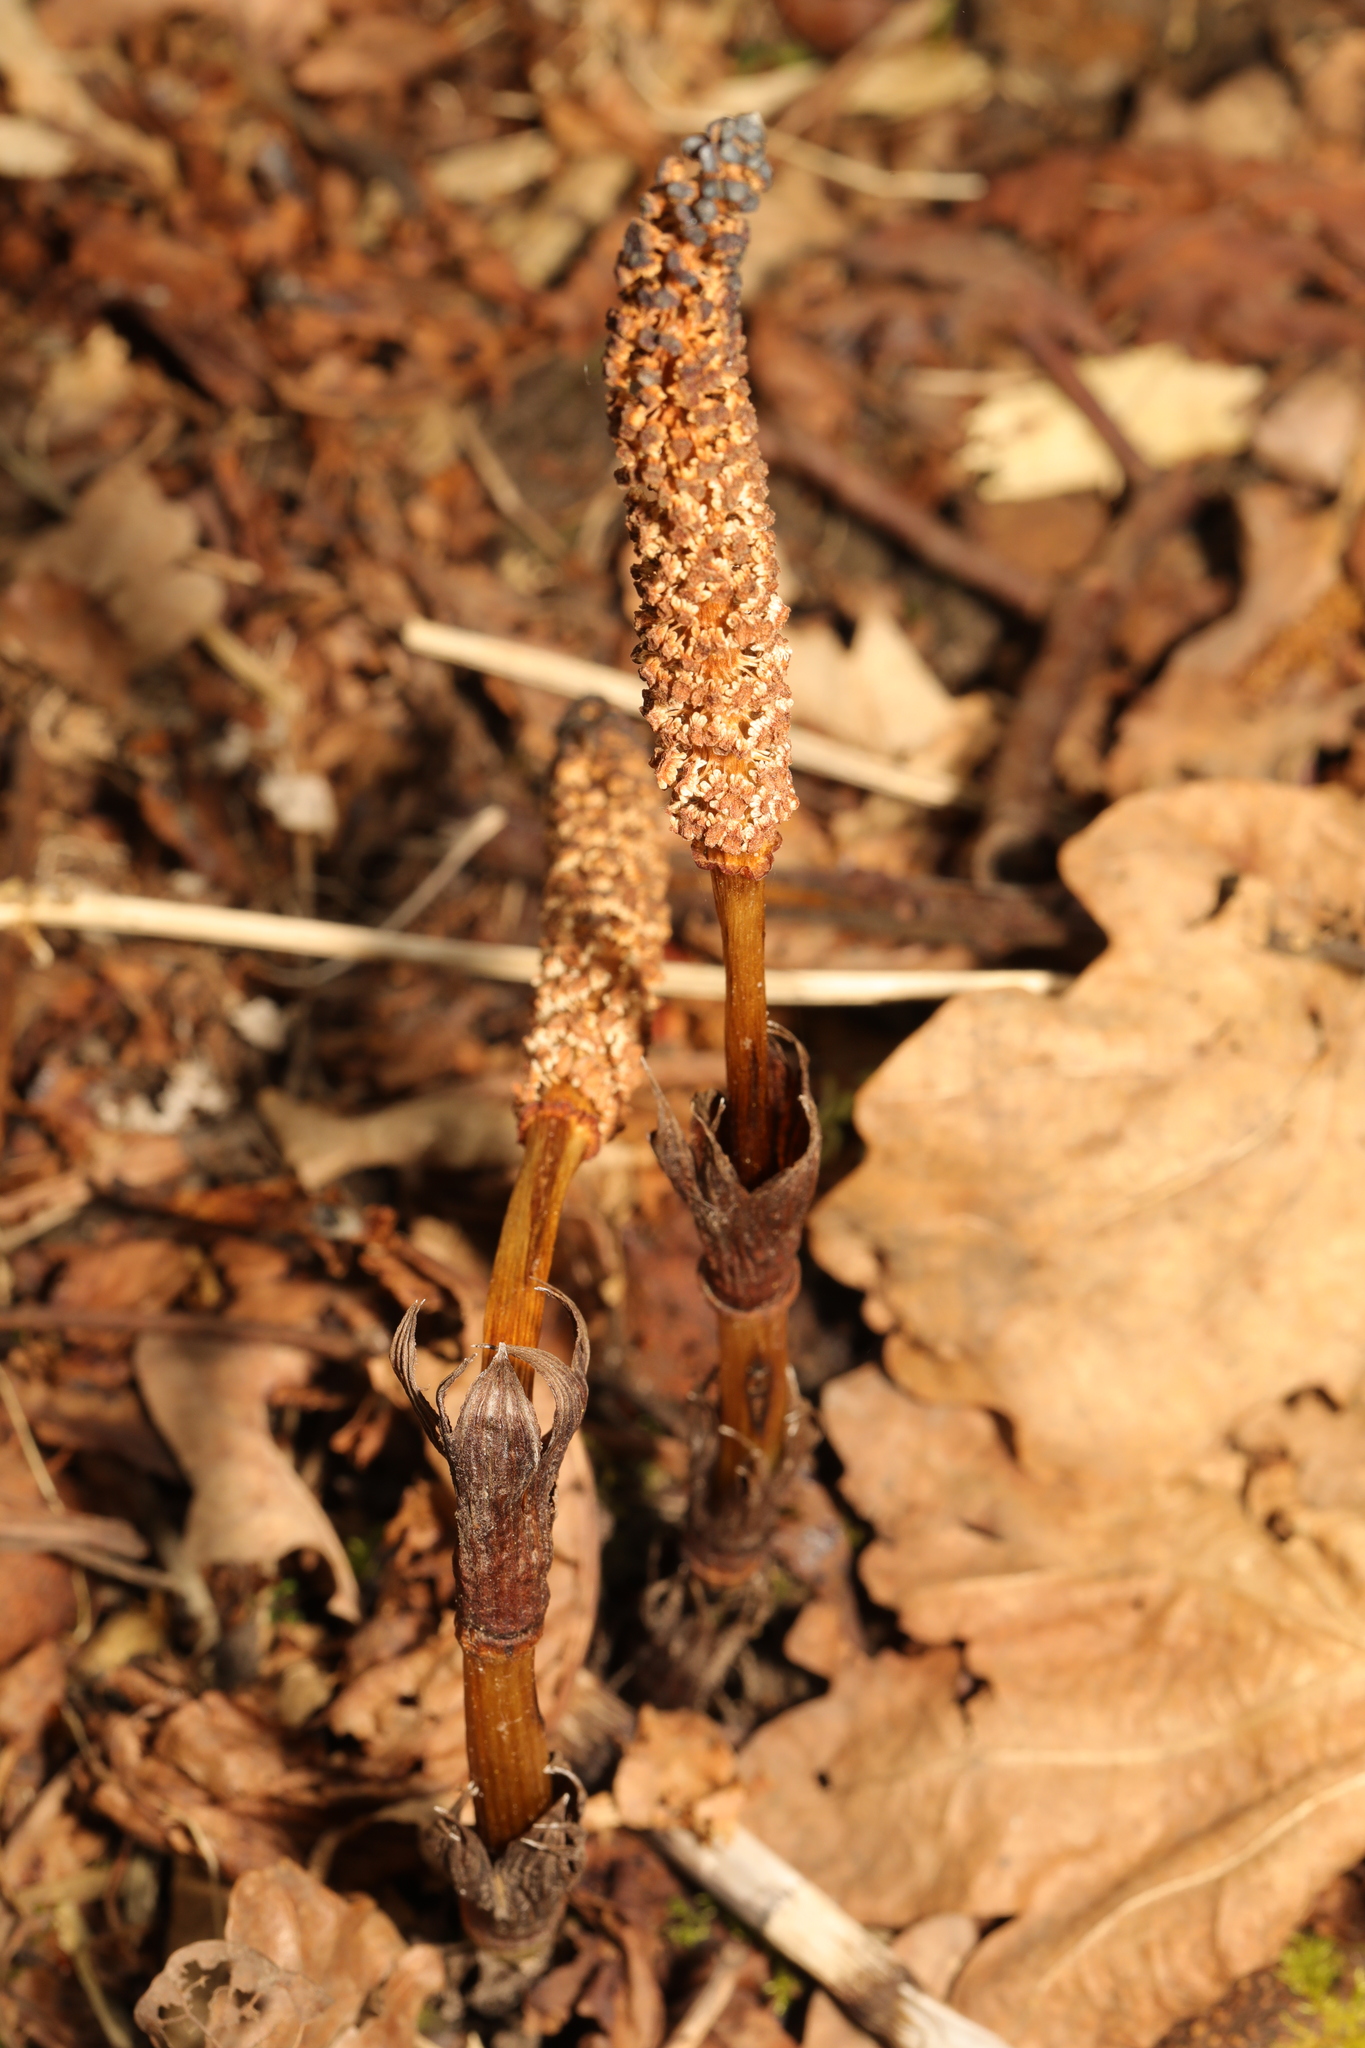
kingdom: Plantae
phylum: Tracheophyta
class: Polypodiopsida
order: Equisetales
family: Equisetaceae
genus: Equisetum
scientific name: Equisetum arvense
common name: Field horsetail
